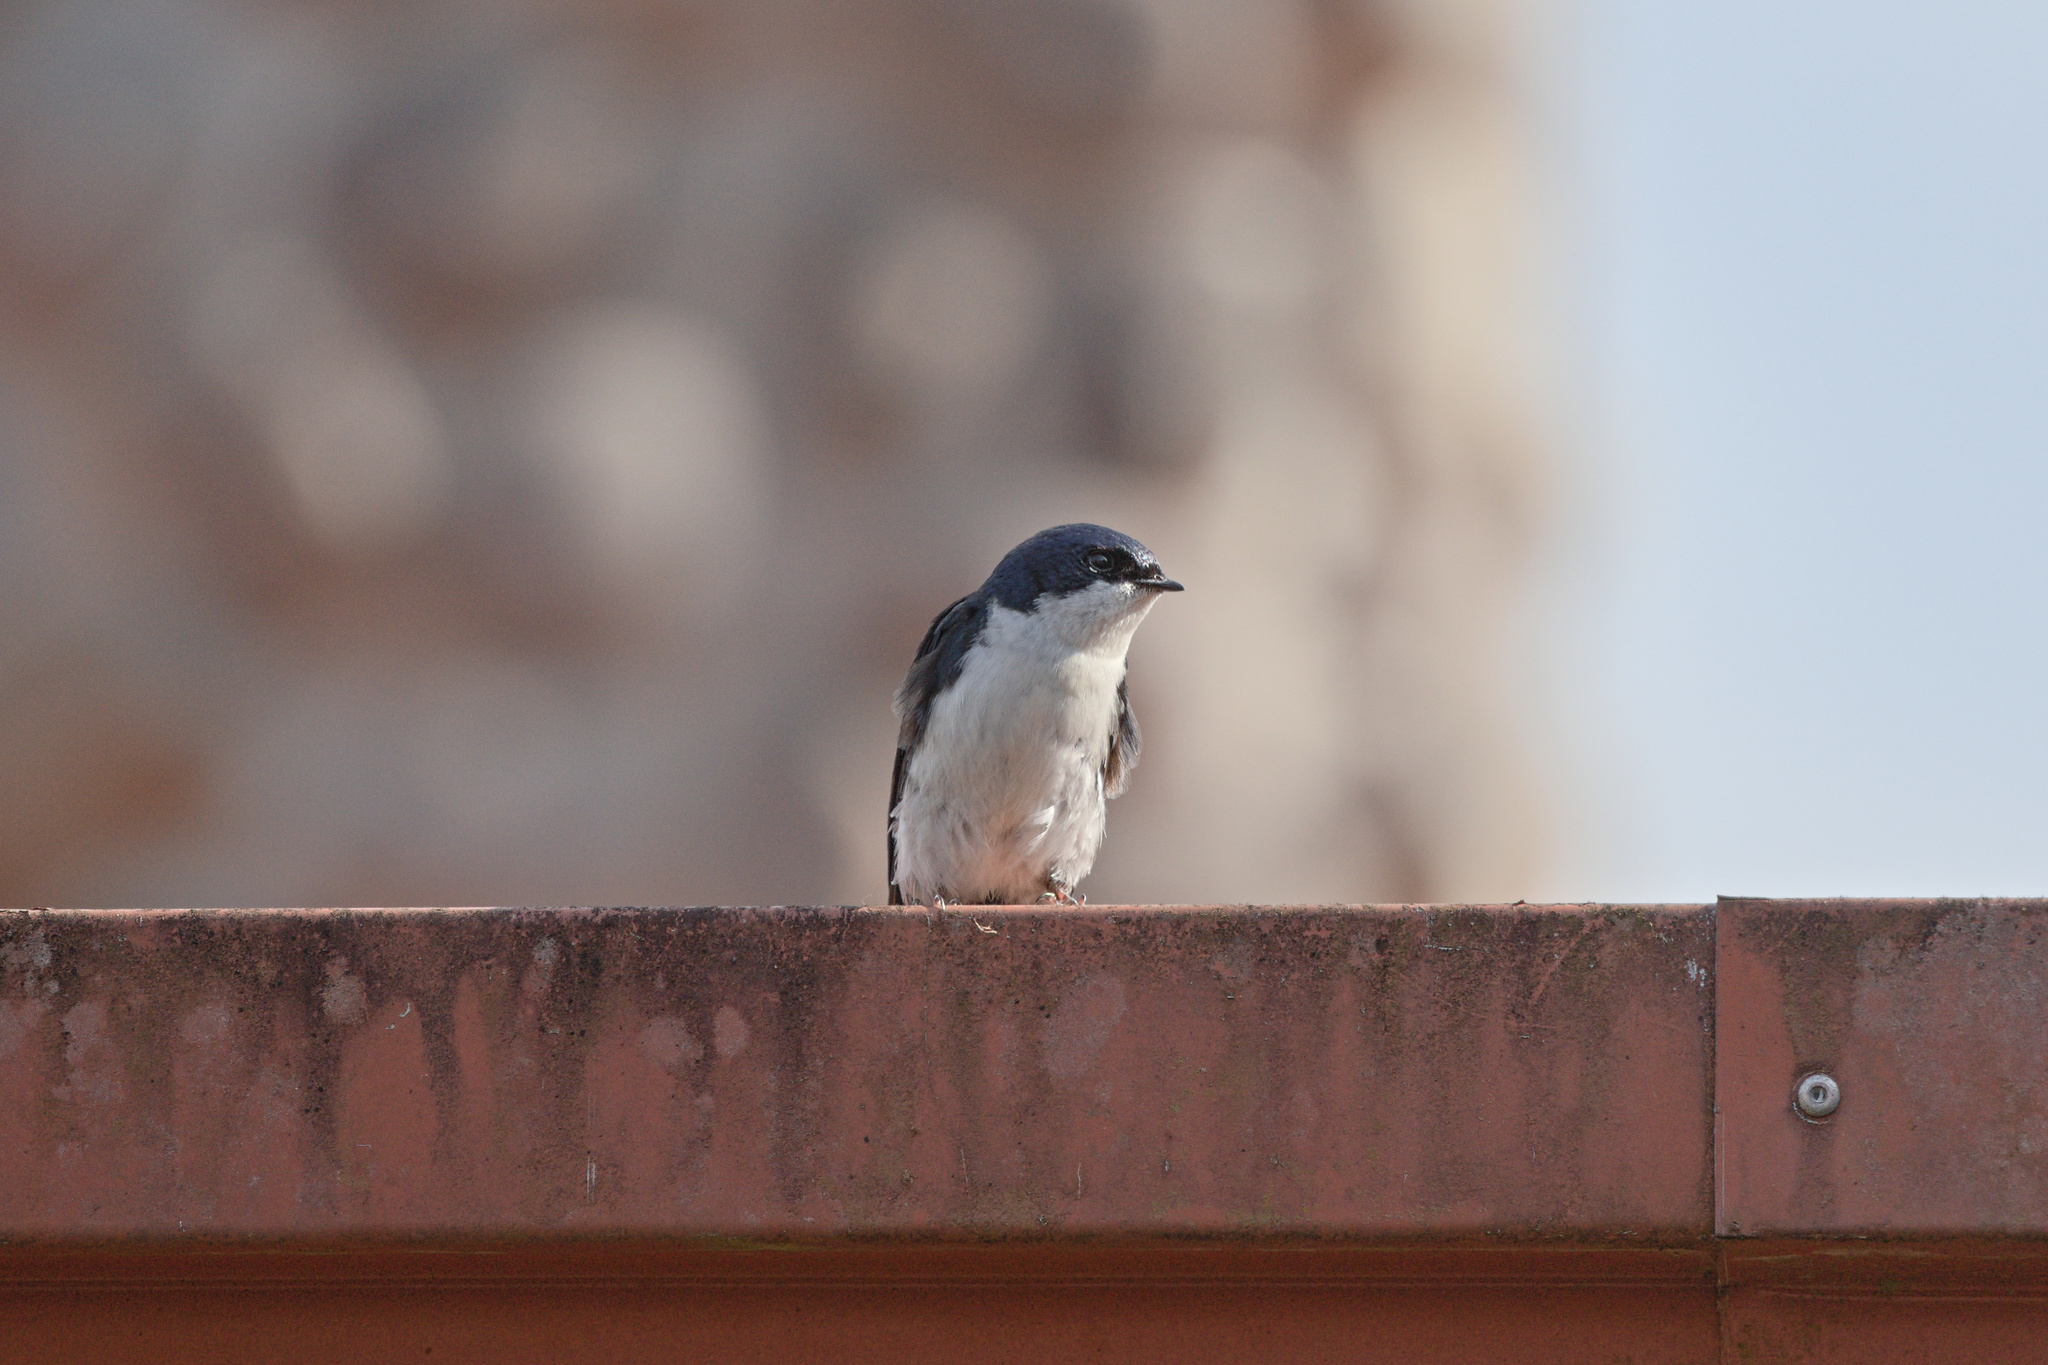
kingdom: Animalia
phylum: Chordata
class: Aves
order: Passeriformes
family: Hirundinidae
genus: Notiochelidon
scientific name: Notiochelidon cyanoleuca
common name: Blue-and-white swallow
